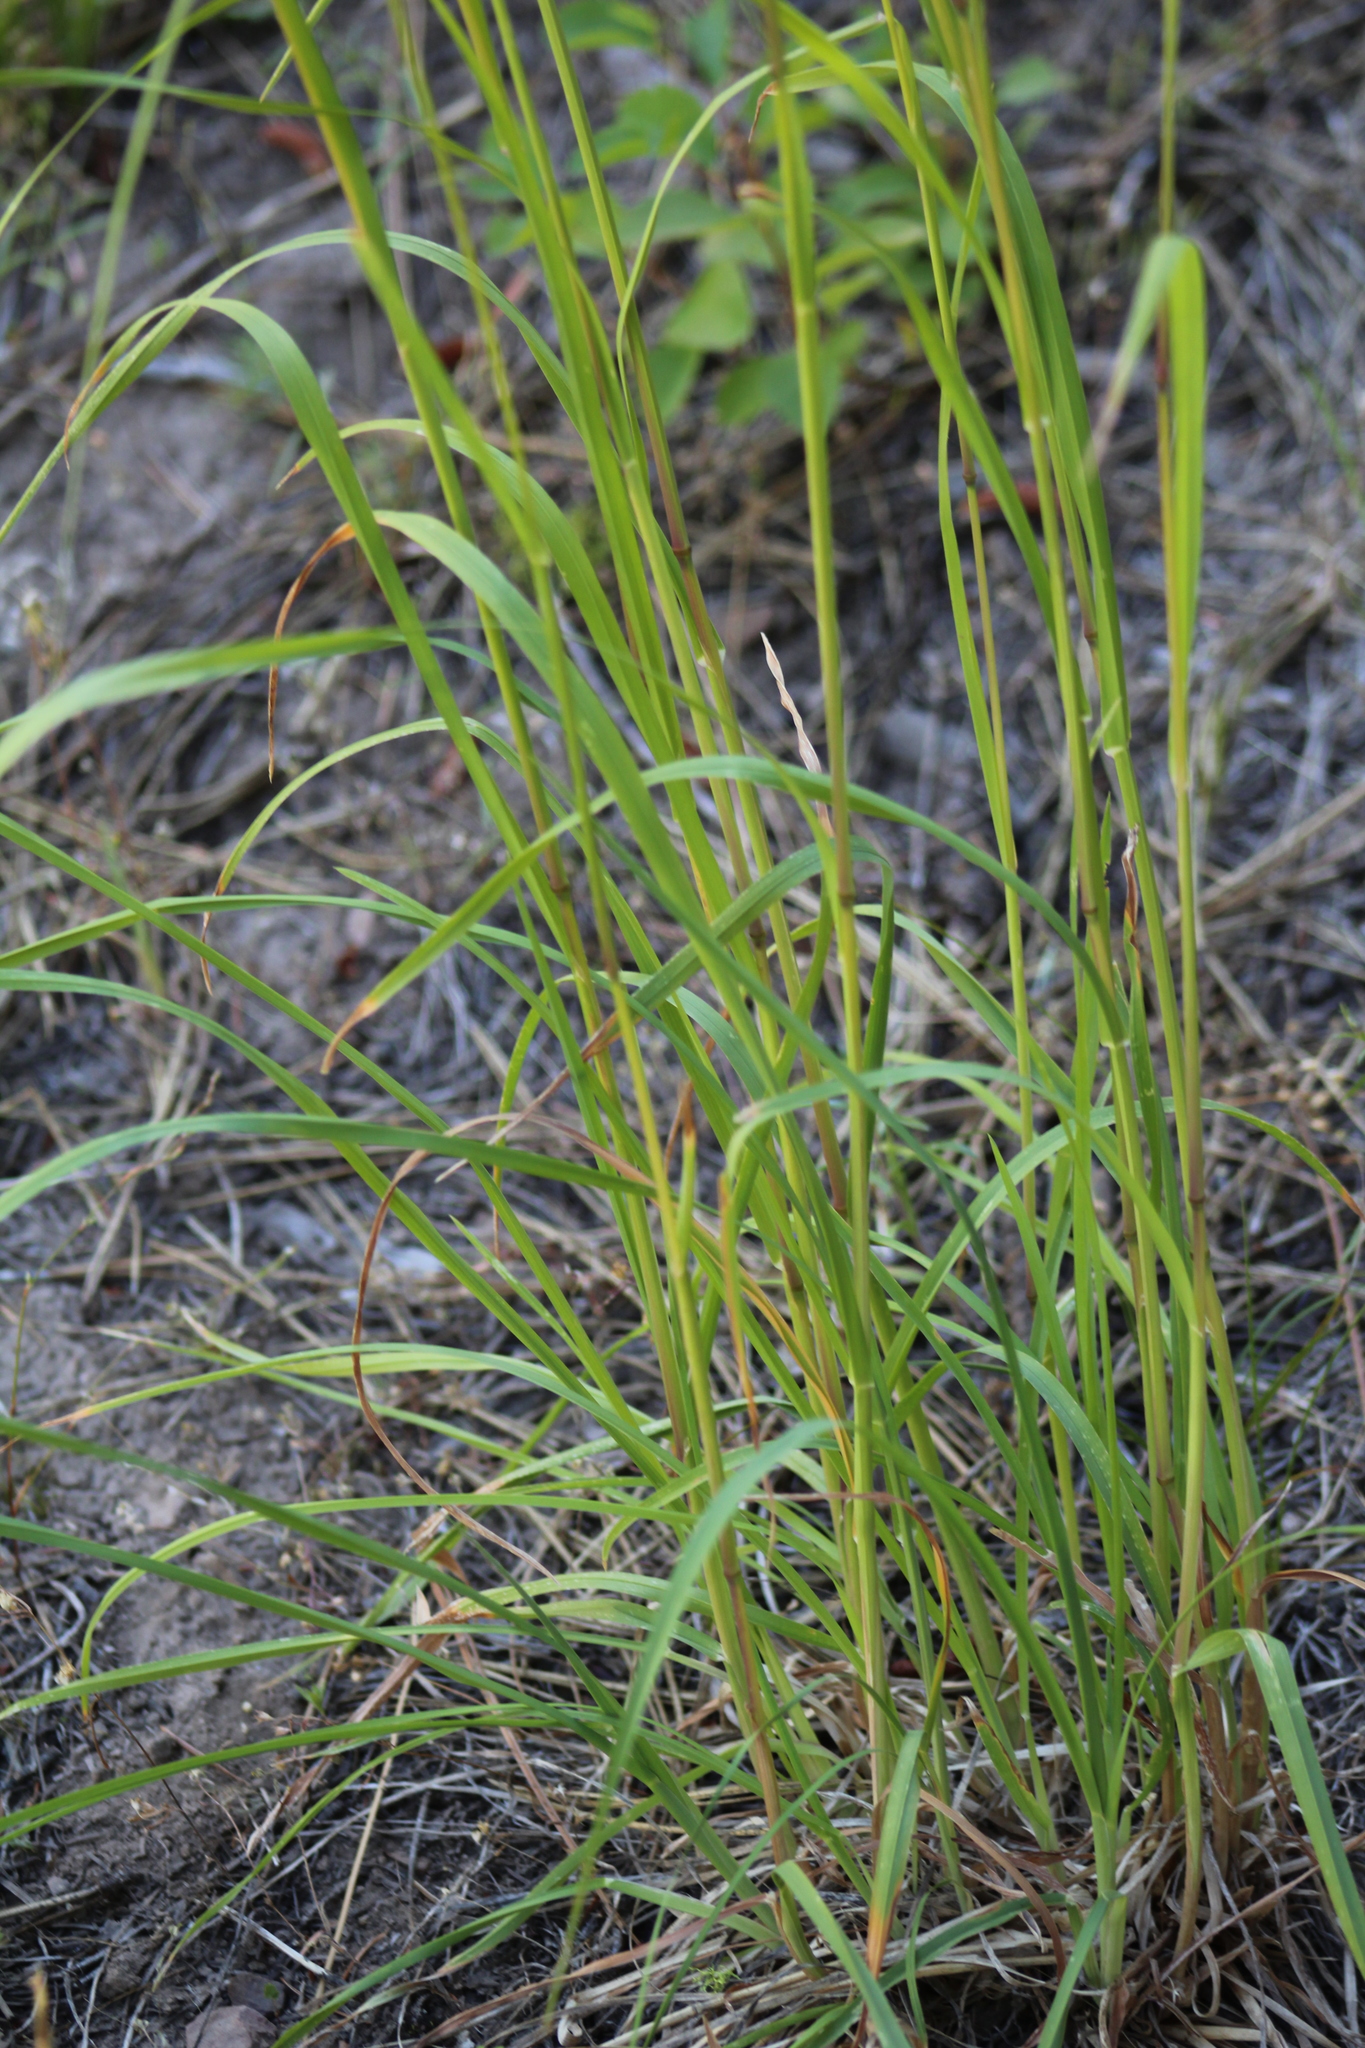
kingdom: Plantae
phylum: Tracheophyta
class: Liliopsida
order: Poales
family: Poaceae
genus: Dactylis
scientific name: Dactylis glomerata
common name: Orchardgrass
